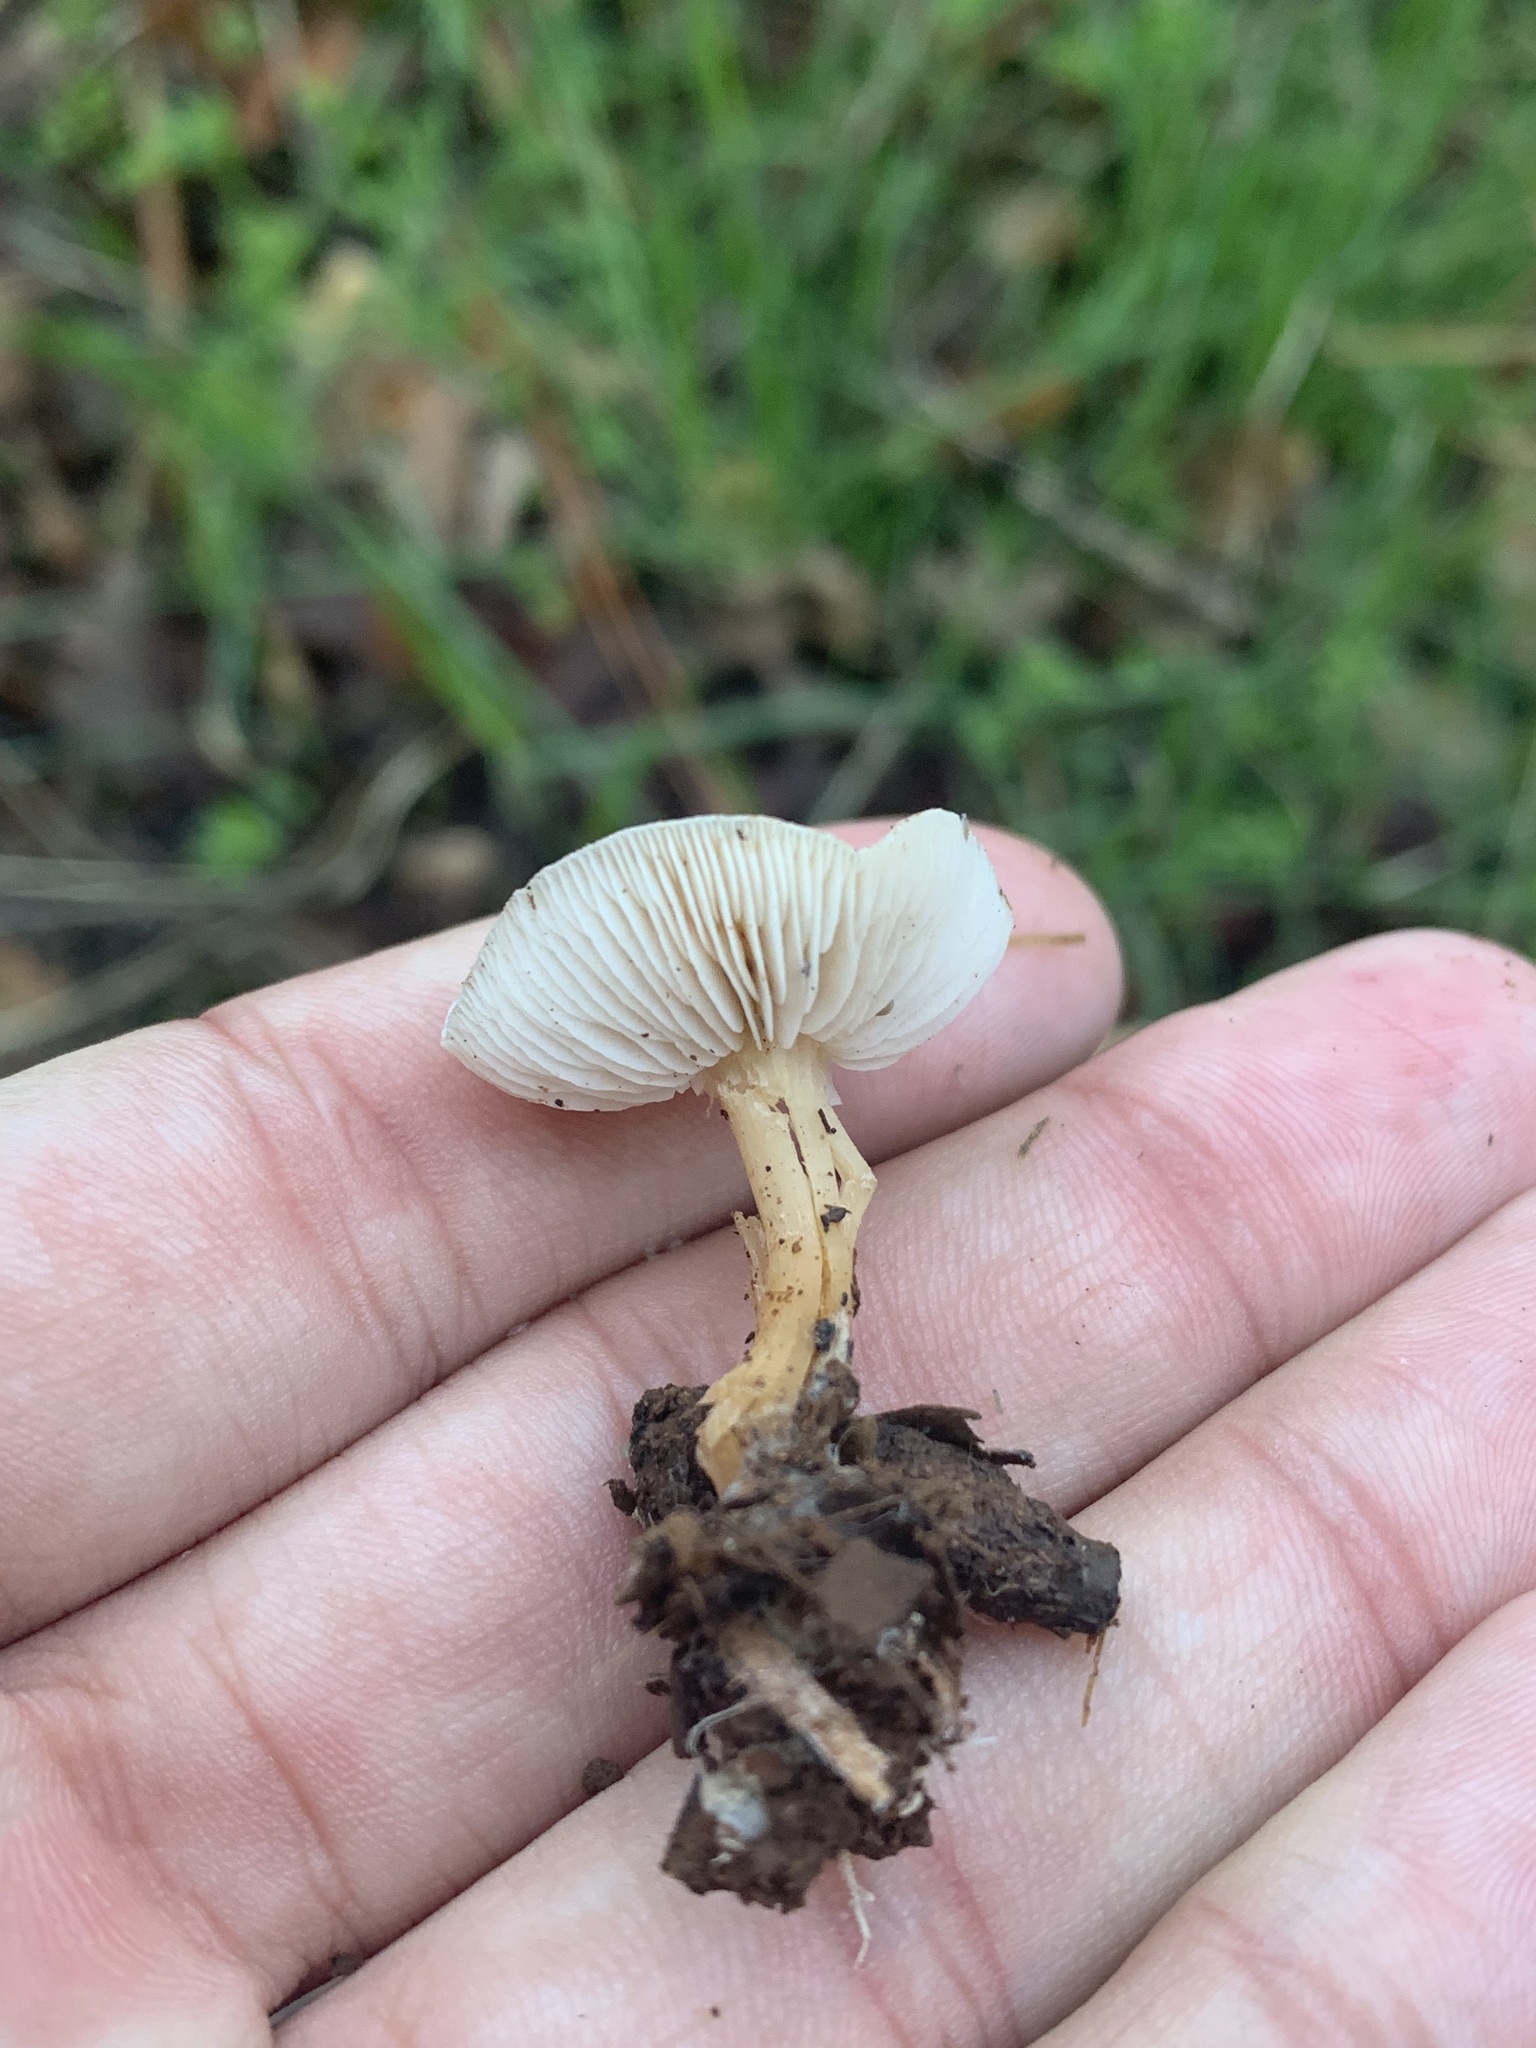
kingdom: Fungi
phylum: Basidiomycota
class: Agaricomycetes
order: Agaricales
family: Omphalotaceae
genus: Gymnopus
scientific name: Gymnopus dryophilus
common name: Penny top
